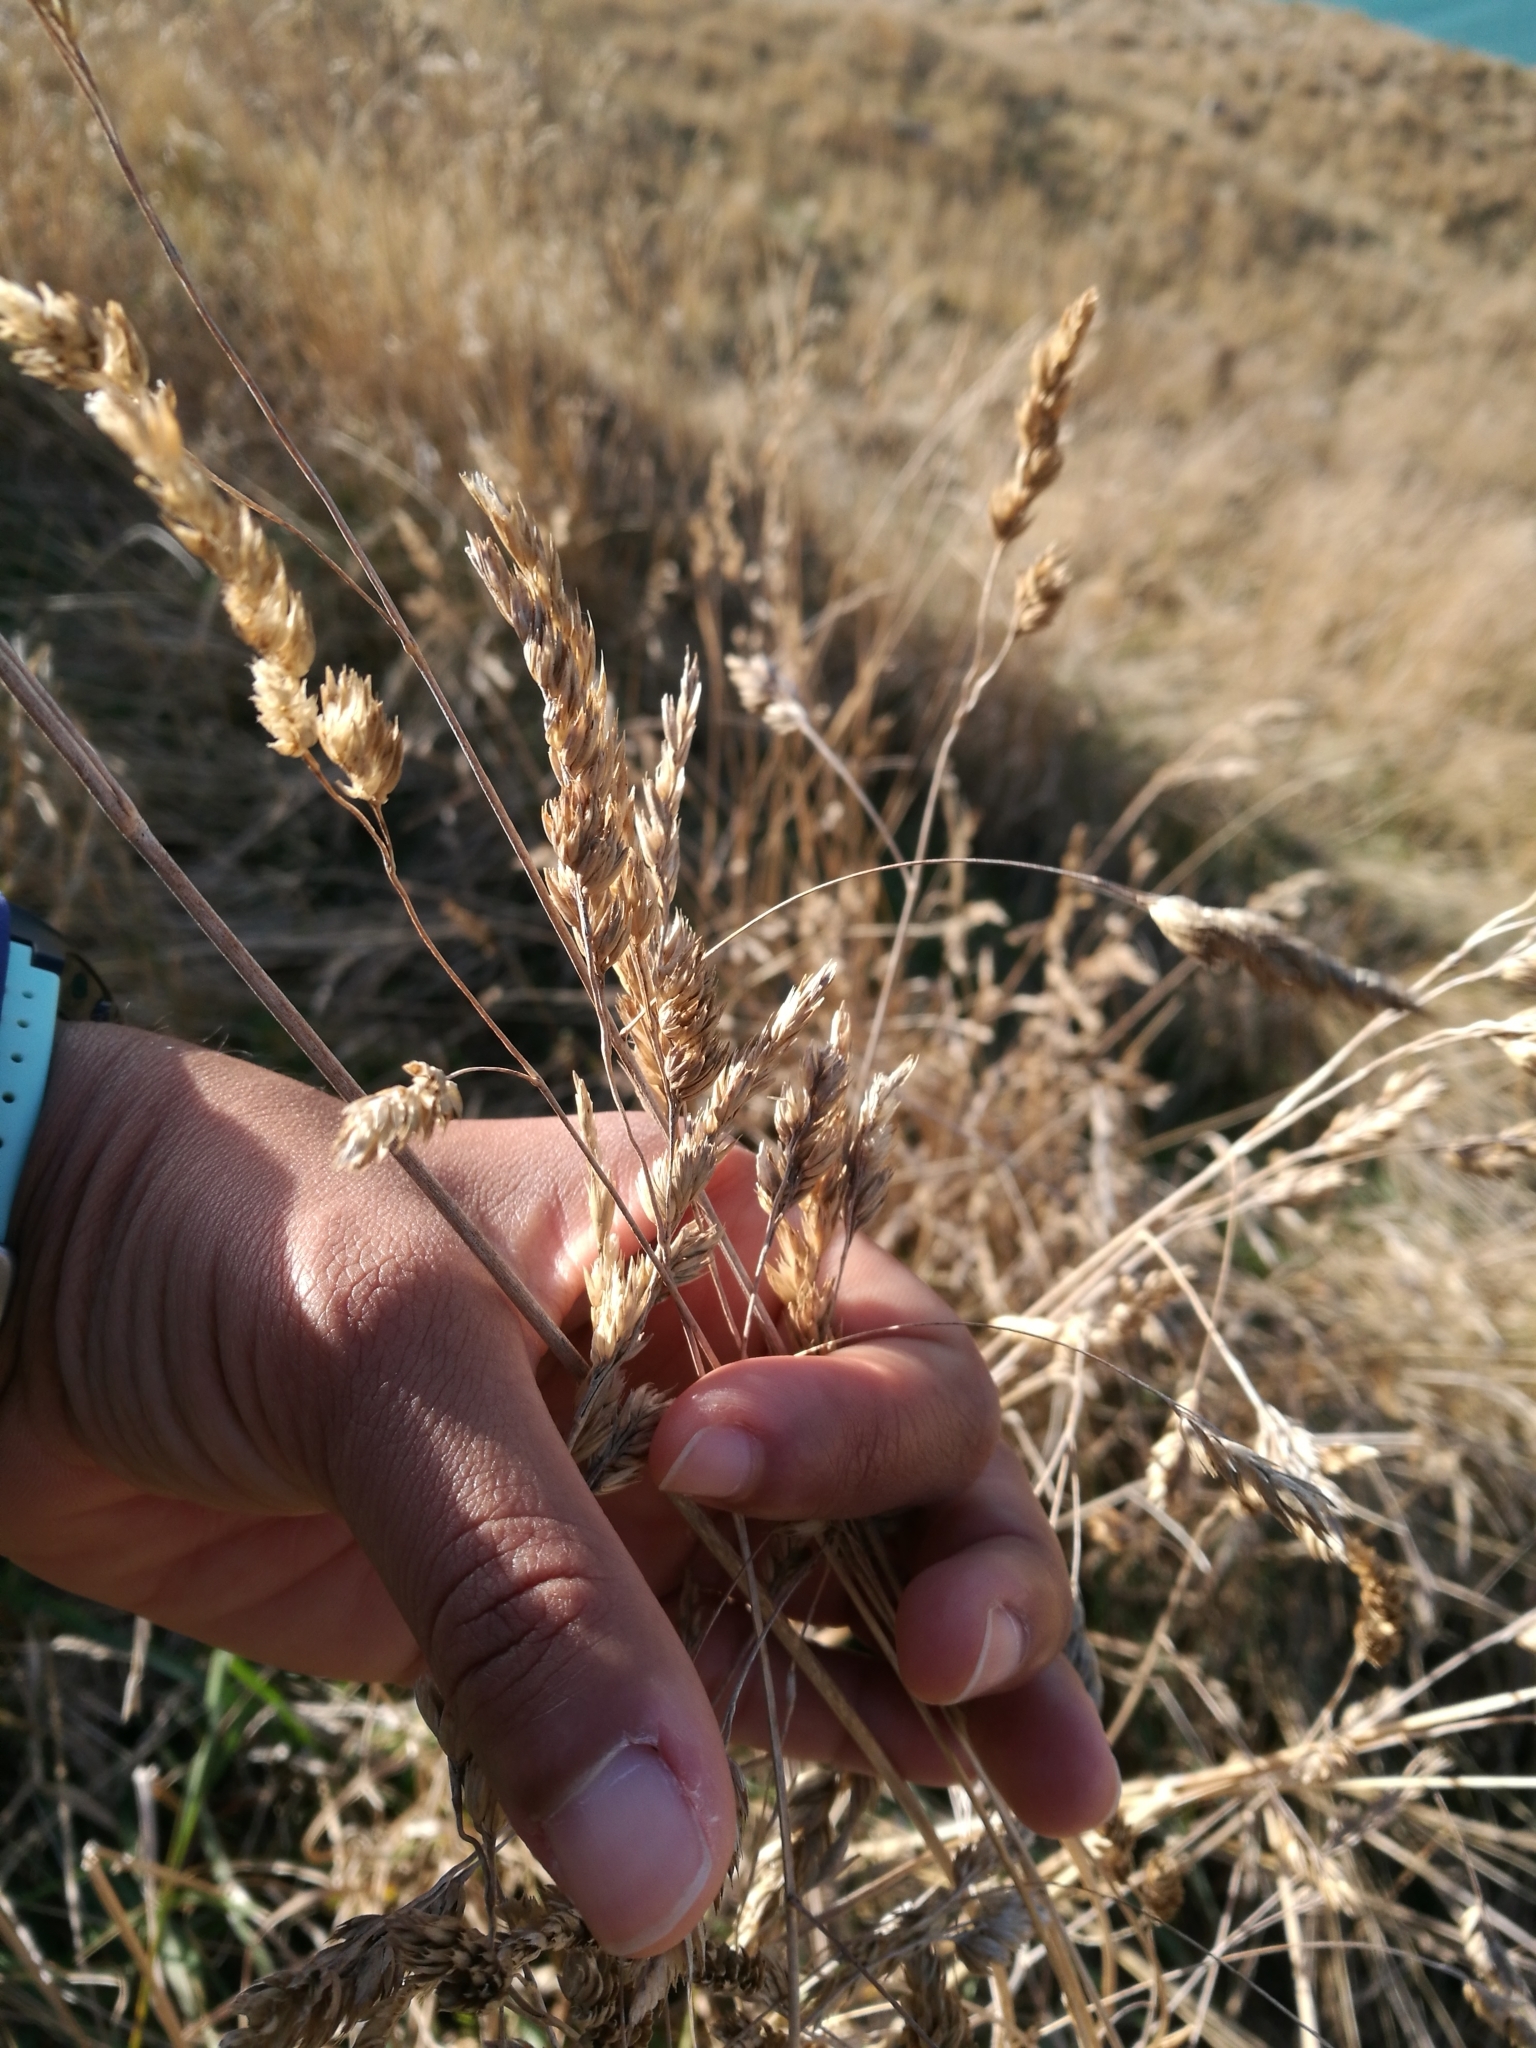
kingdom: Plantae
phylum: Tracheophyta
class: Liliopsida
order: Poales
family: Poaceae
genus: Dactylis
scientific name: Dactylis glomerata
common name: Orchardgrass
